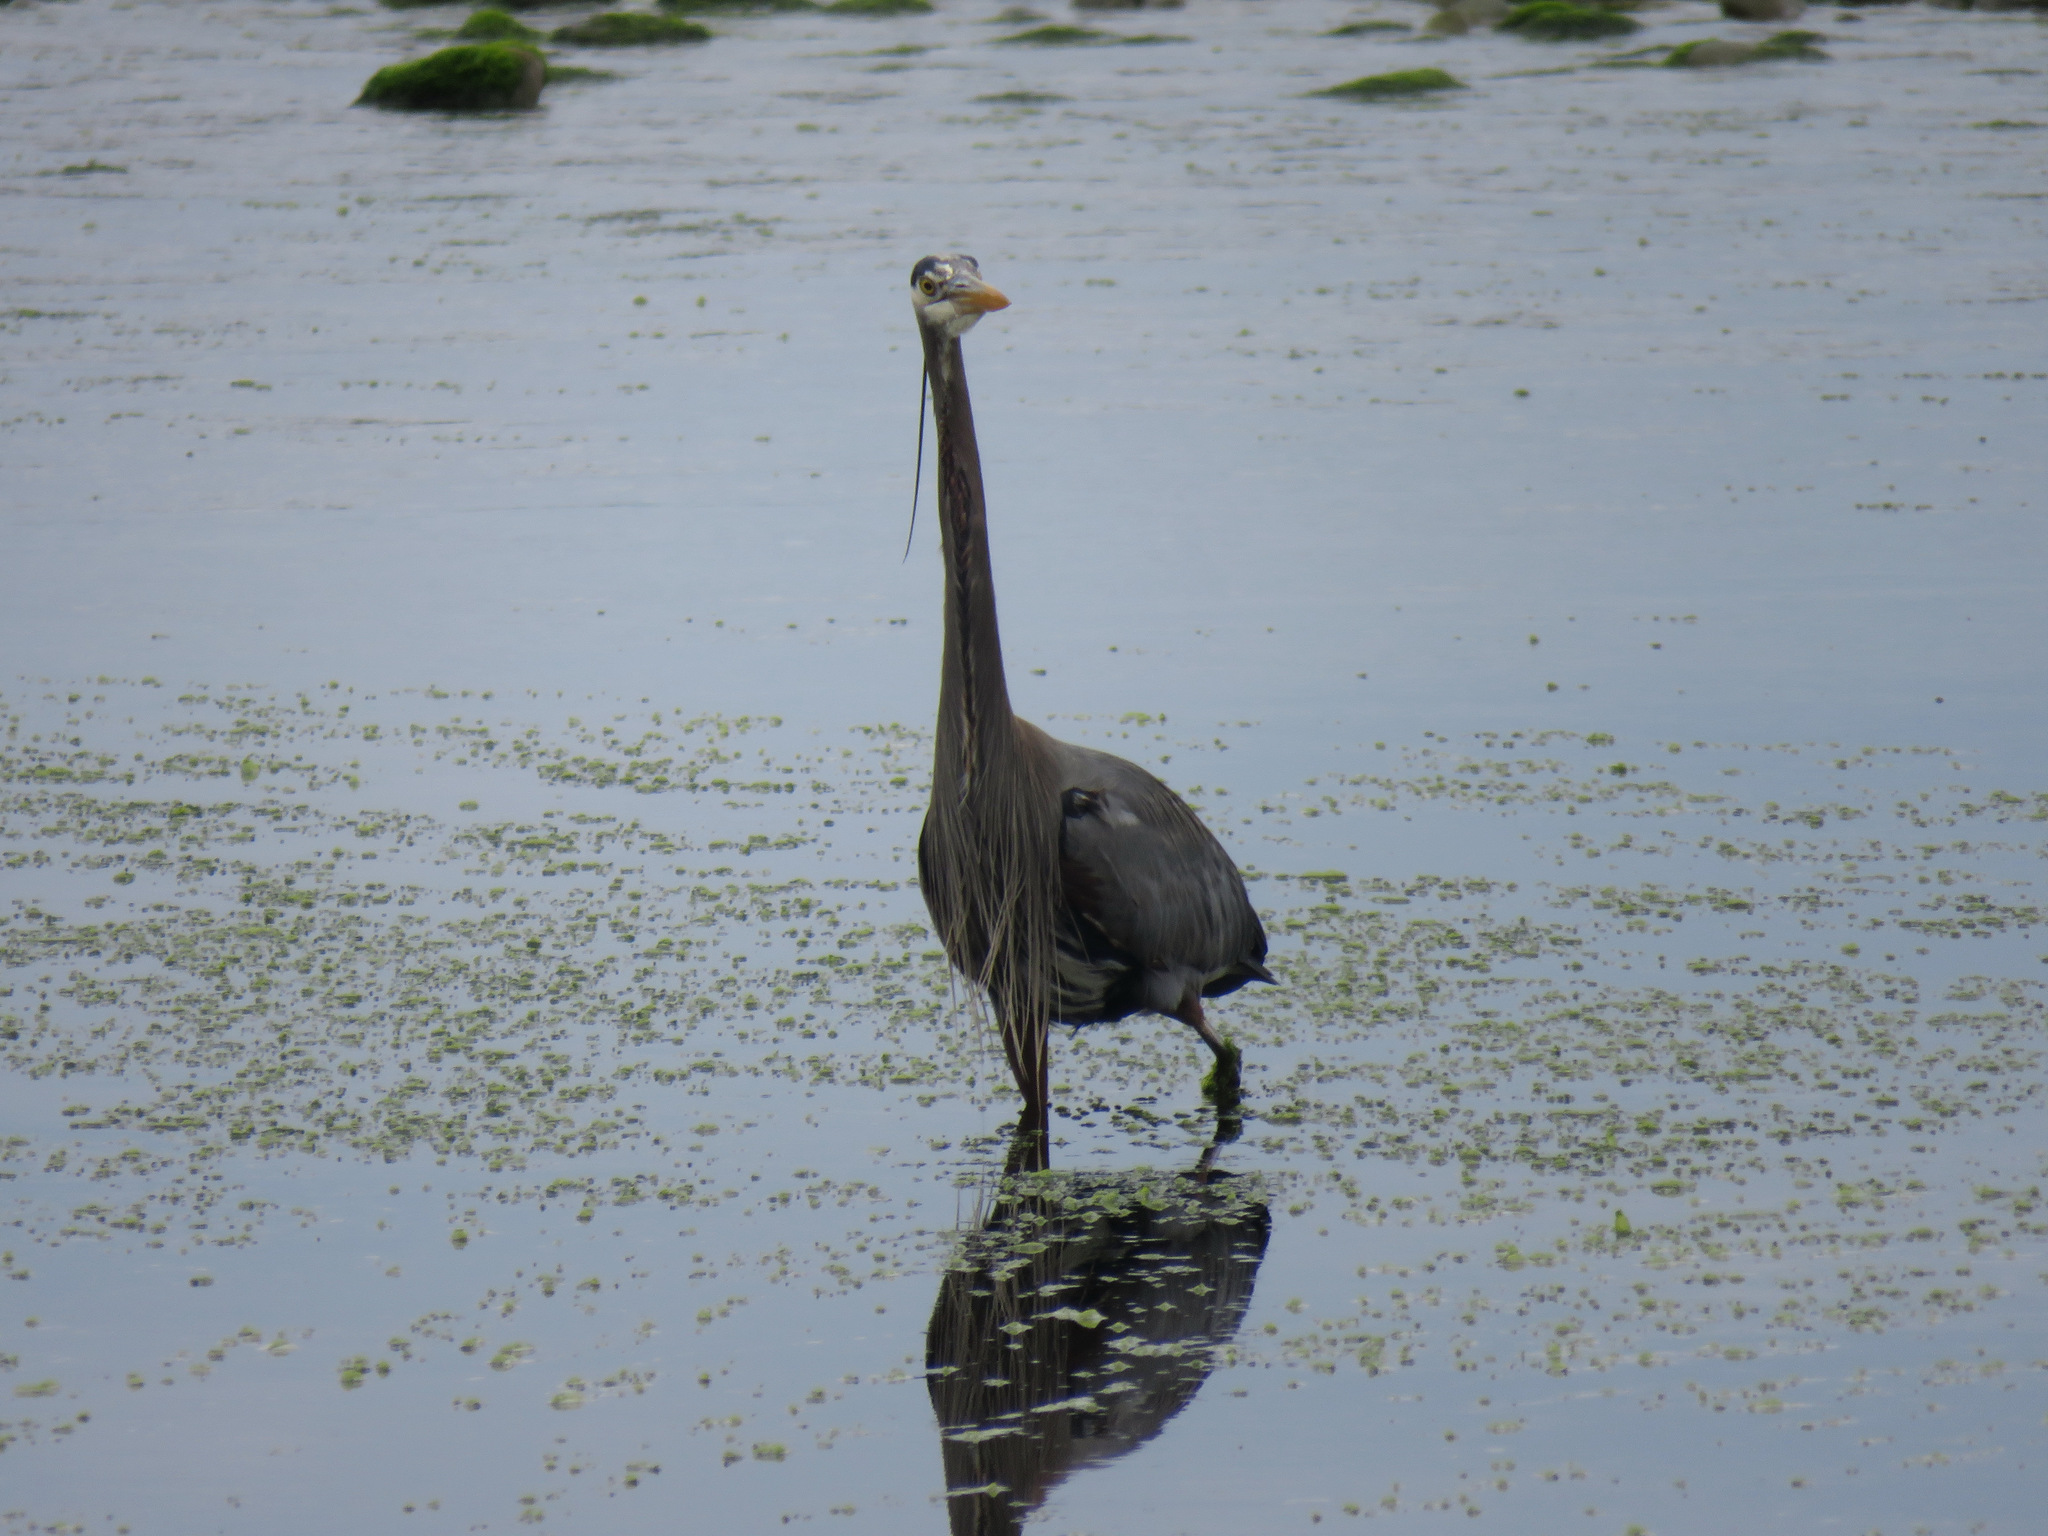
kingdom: Animalia
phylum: Chordata
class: Aves
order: Pelecaniformes
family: Ardeidae
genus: Ardea
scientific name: Ardea herodias
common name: Great blue heron
